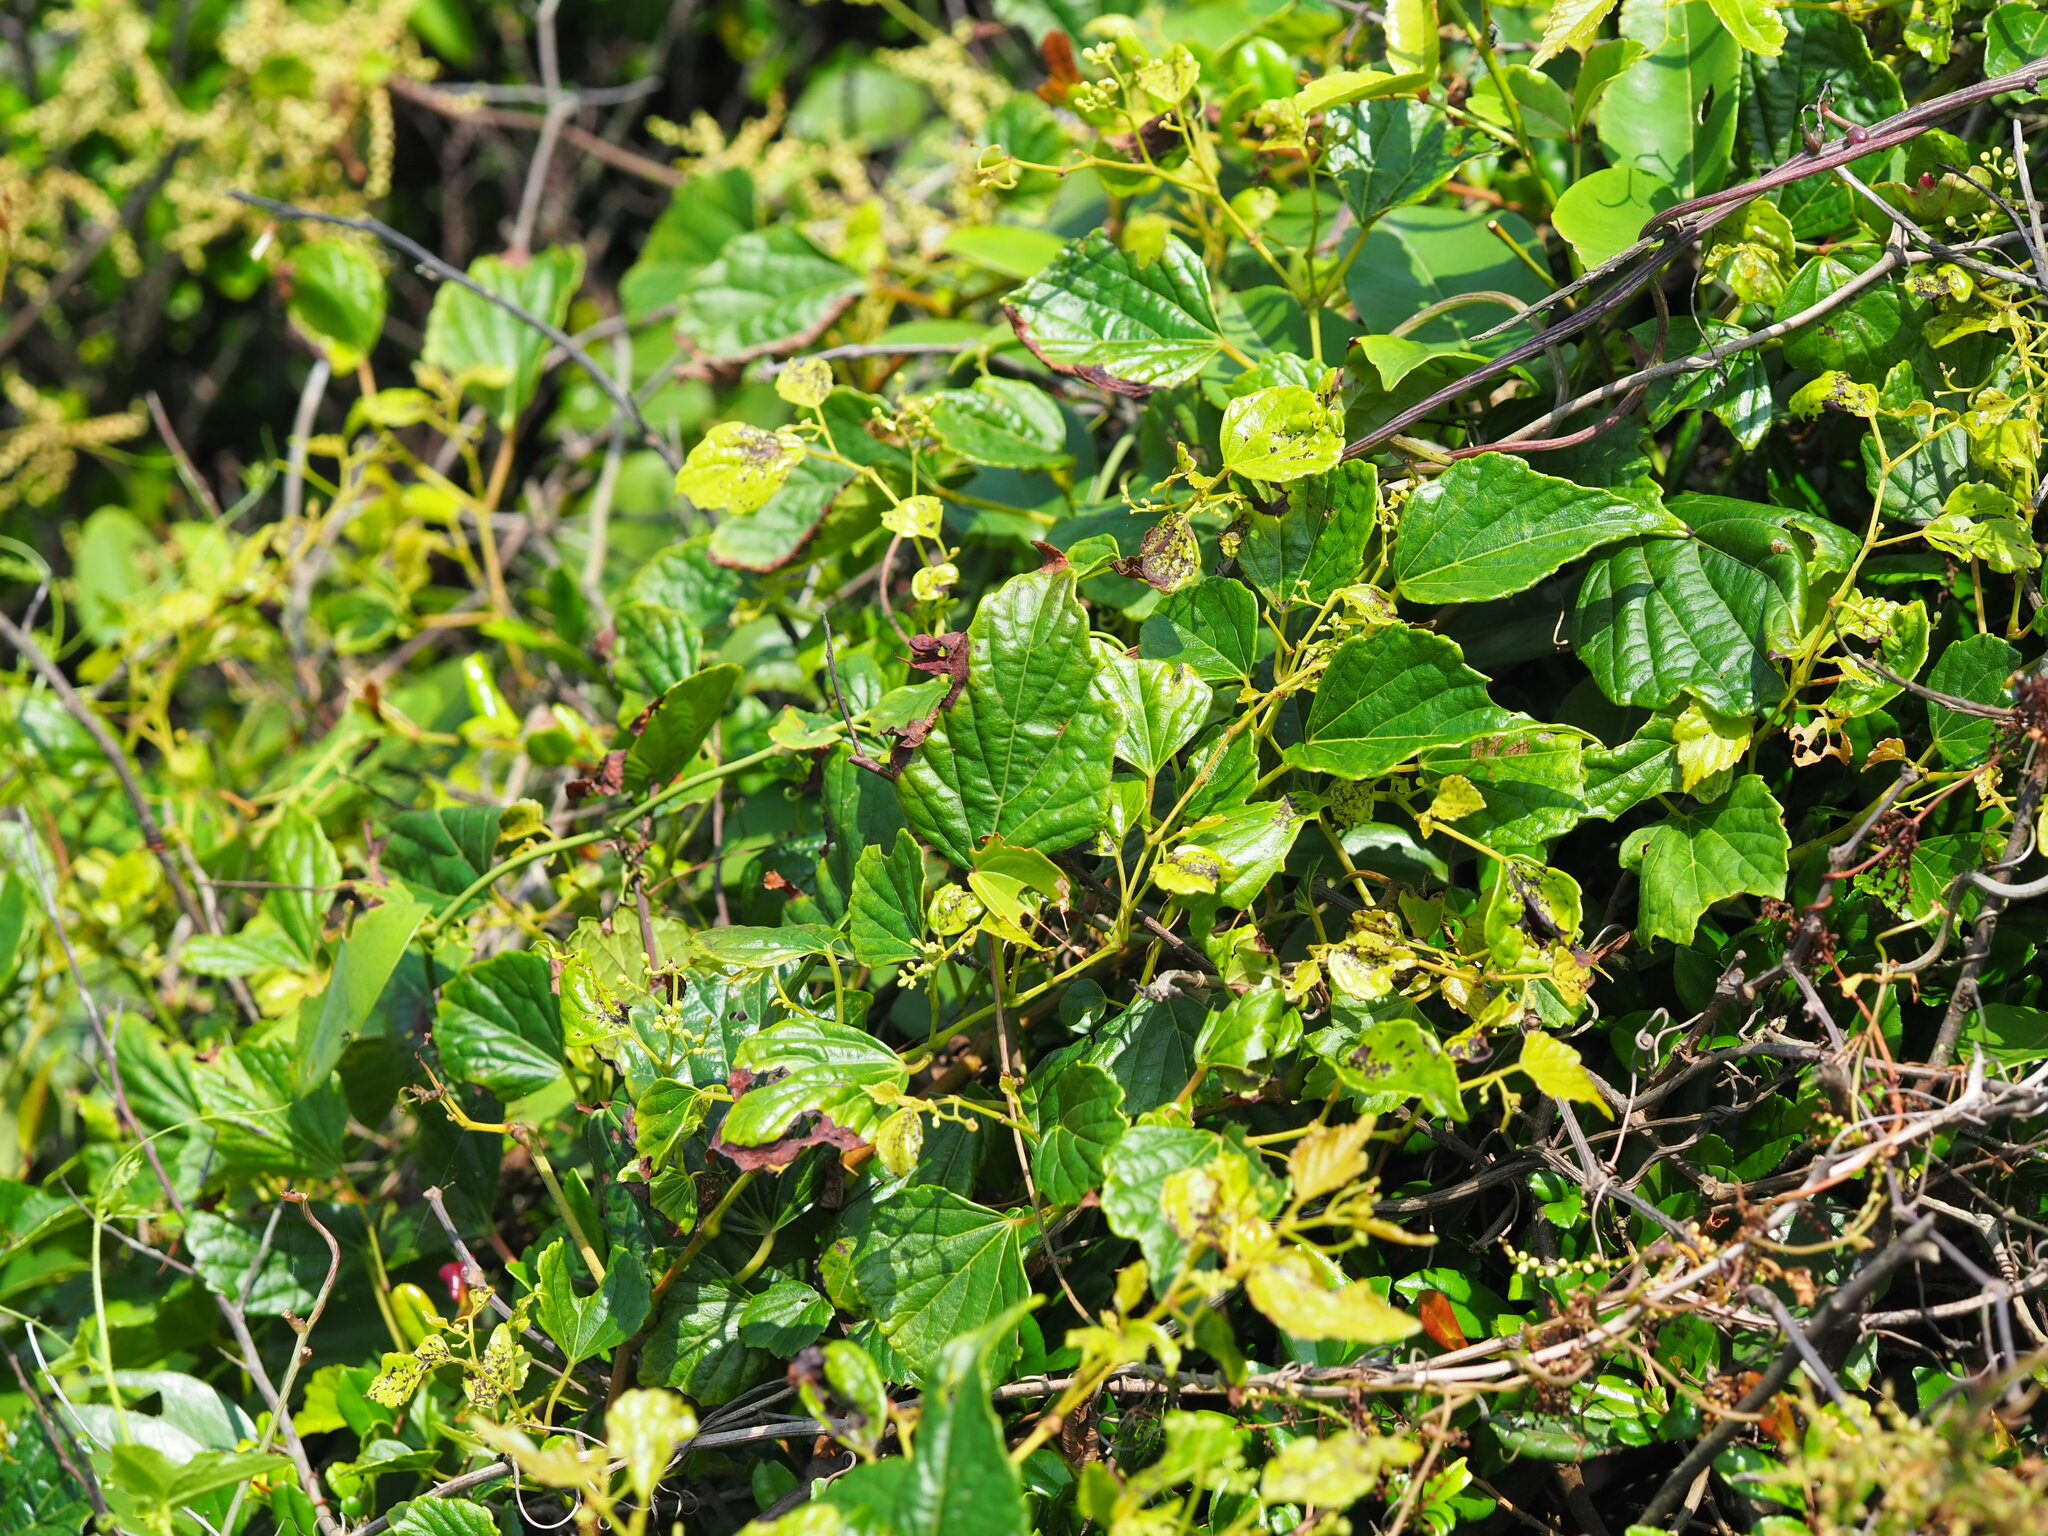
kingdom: Plantae
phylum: Tracheophyta
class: Magnoliopsida
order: Vitales
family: Vitaceae
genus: Ampelopsis
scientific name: Ampelopsis glandulosa
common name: Amur peppervine
